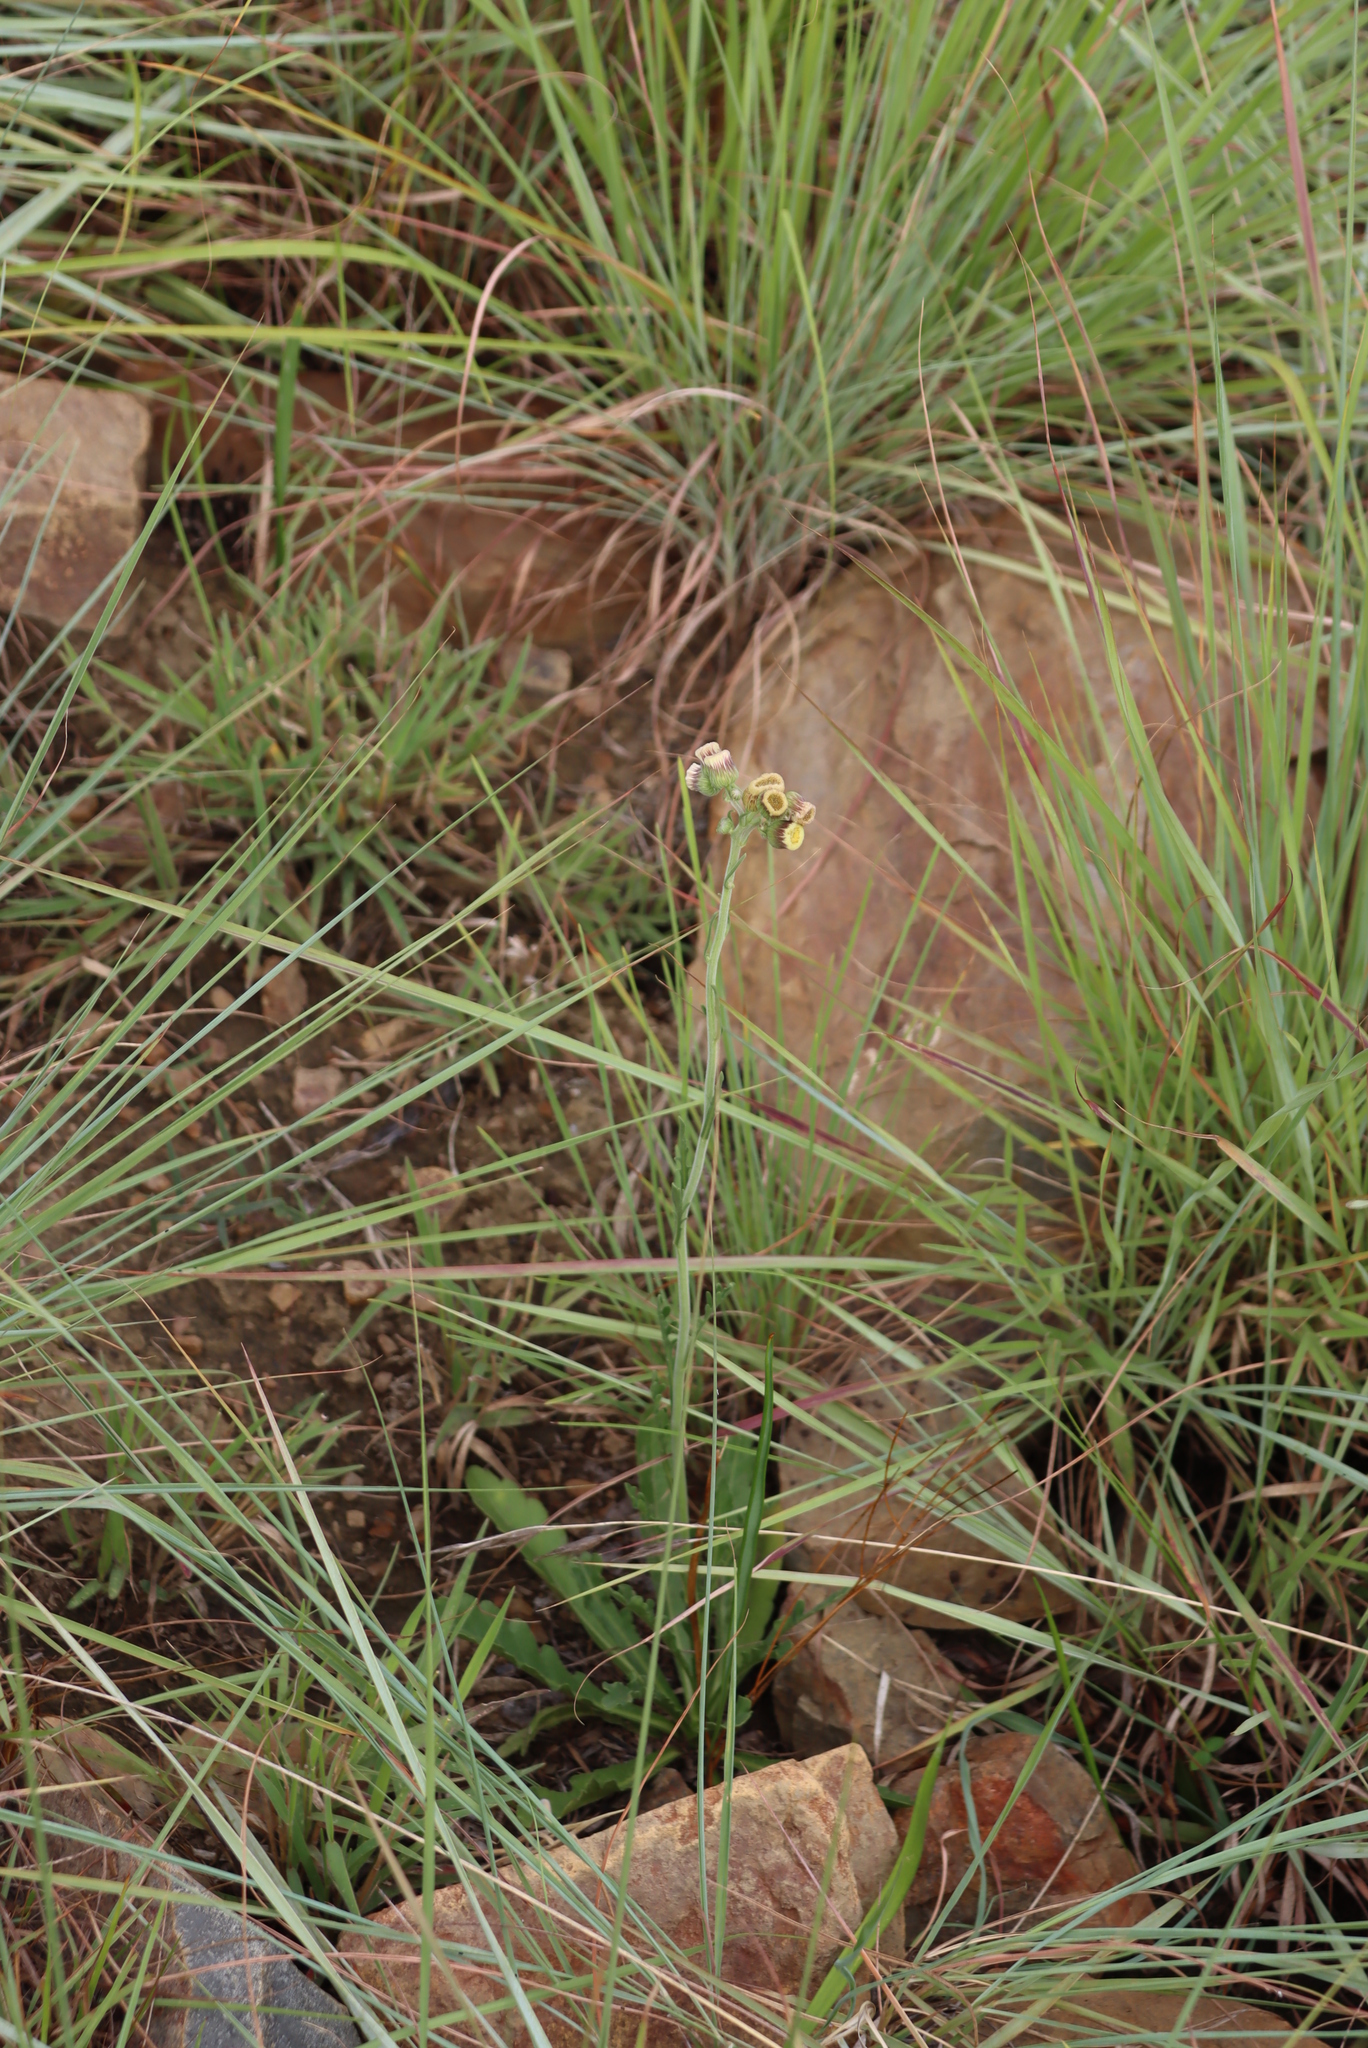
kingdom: Plantae
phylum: Tracheophyta
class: Magnoliopsida
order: Asterales
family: Asteraceae
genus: Erigeron
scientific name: Erigeron primulifolius
